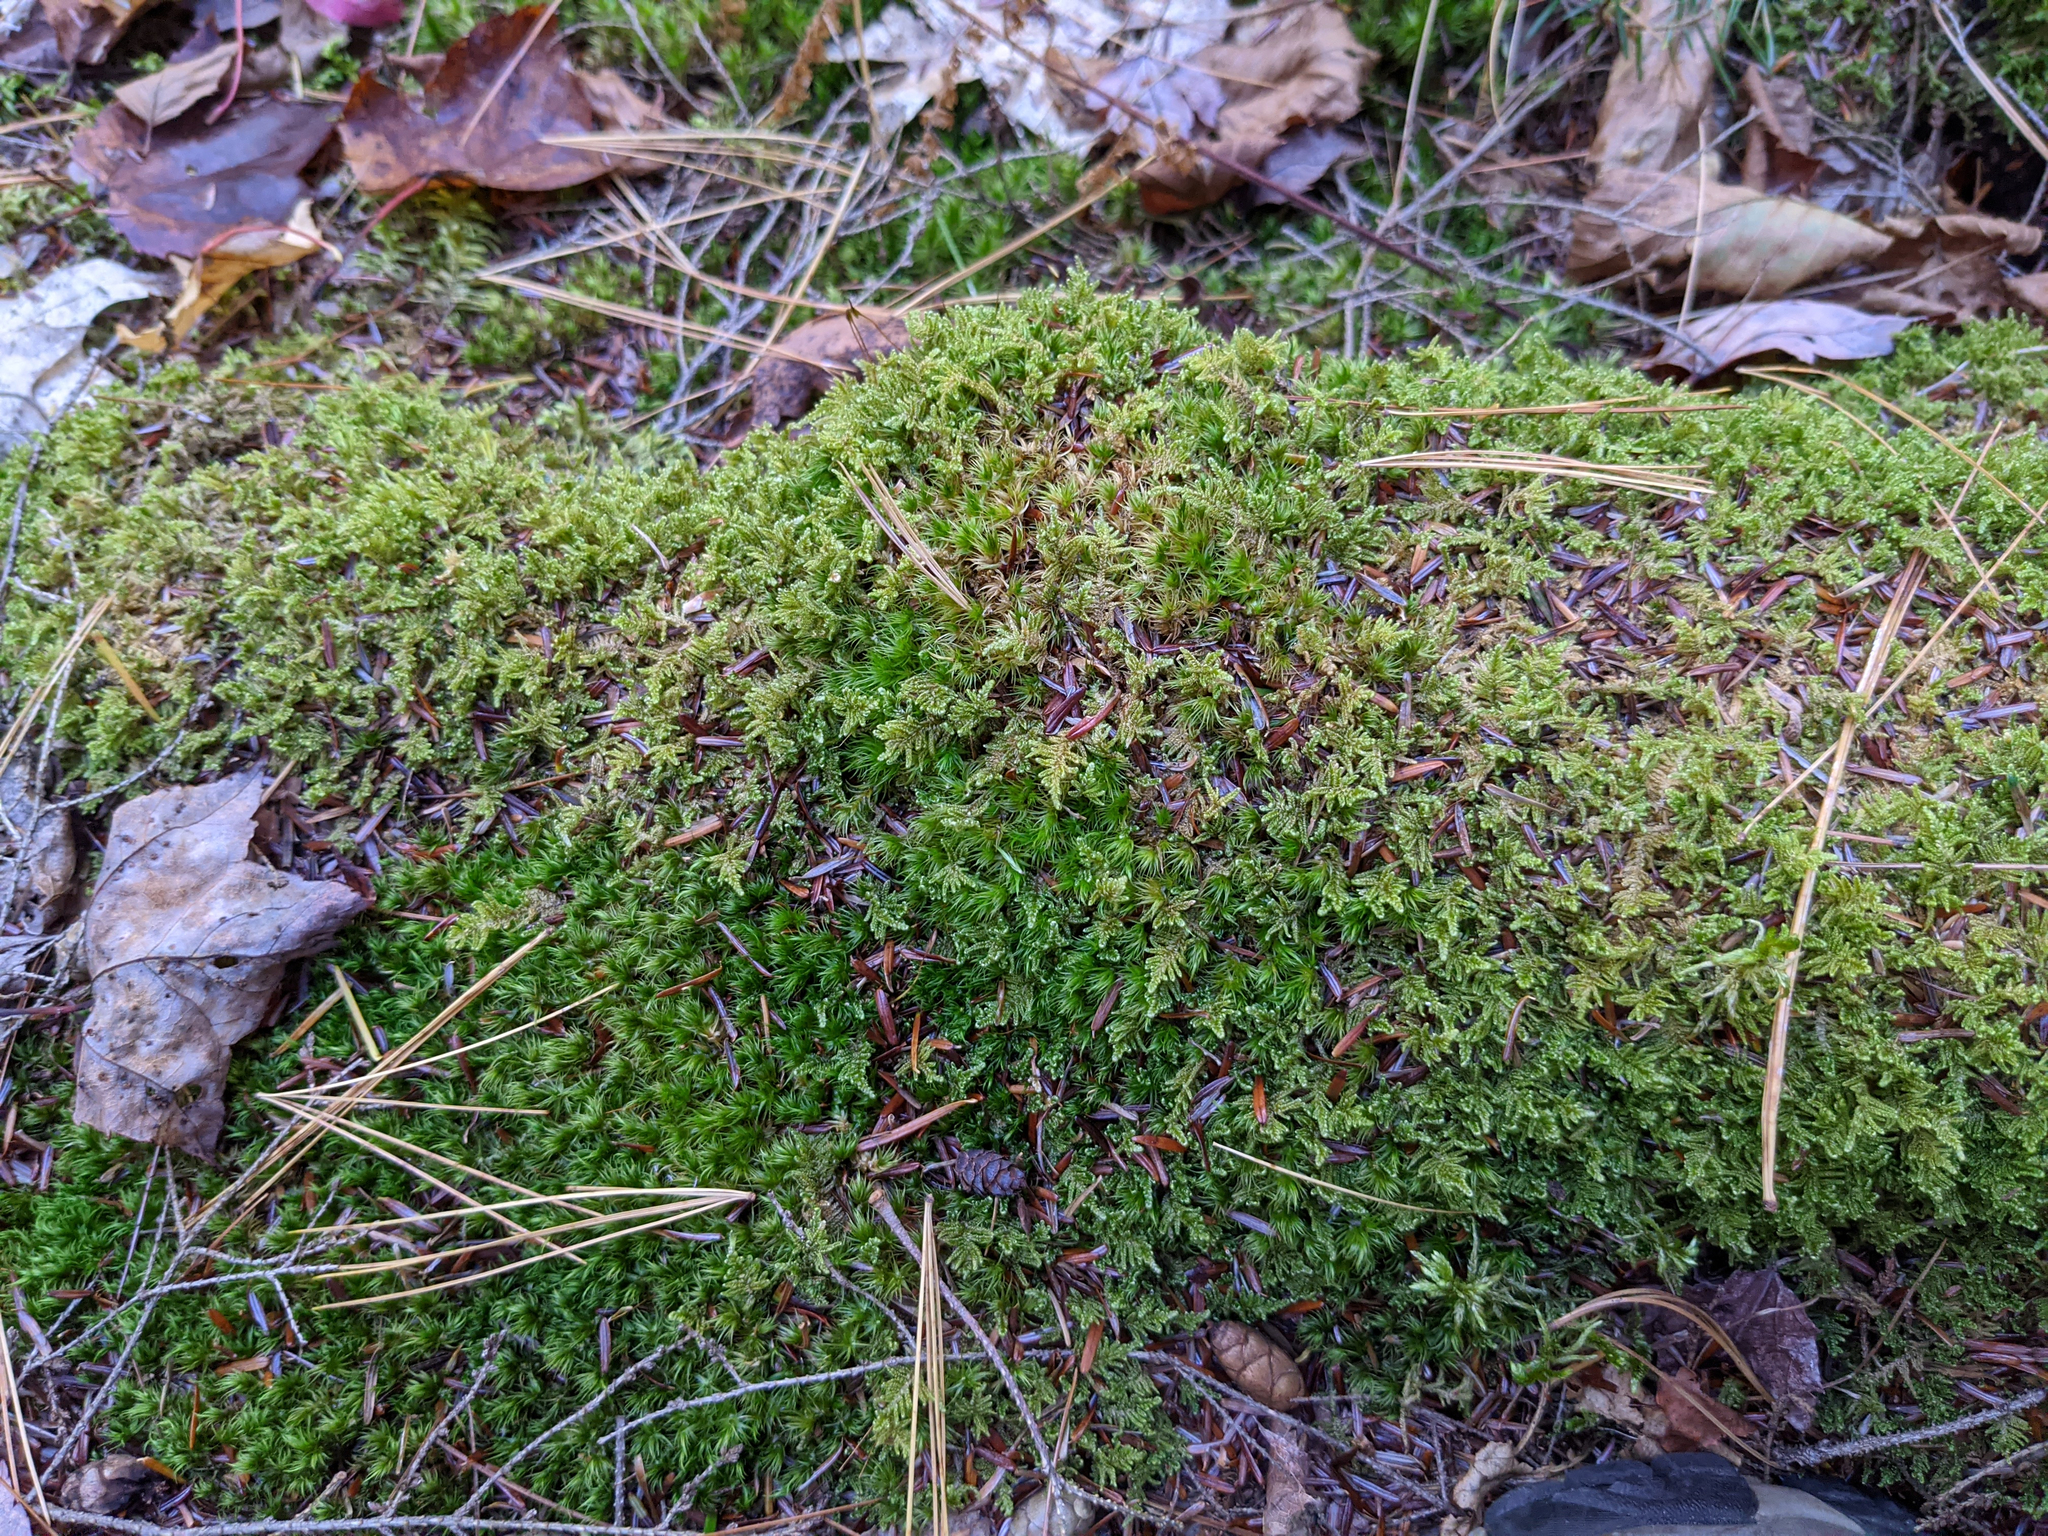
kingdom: Plantae
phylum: Bryophyta
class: Bryopsida
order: Hypnales
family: Callicladiaceae
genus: Callicladium
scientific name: Callicladium imponens
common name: Brocade moss
